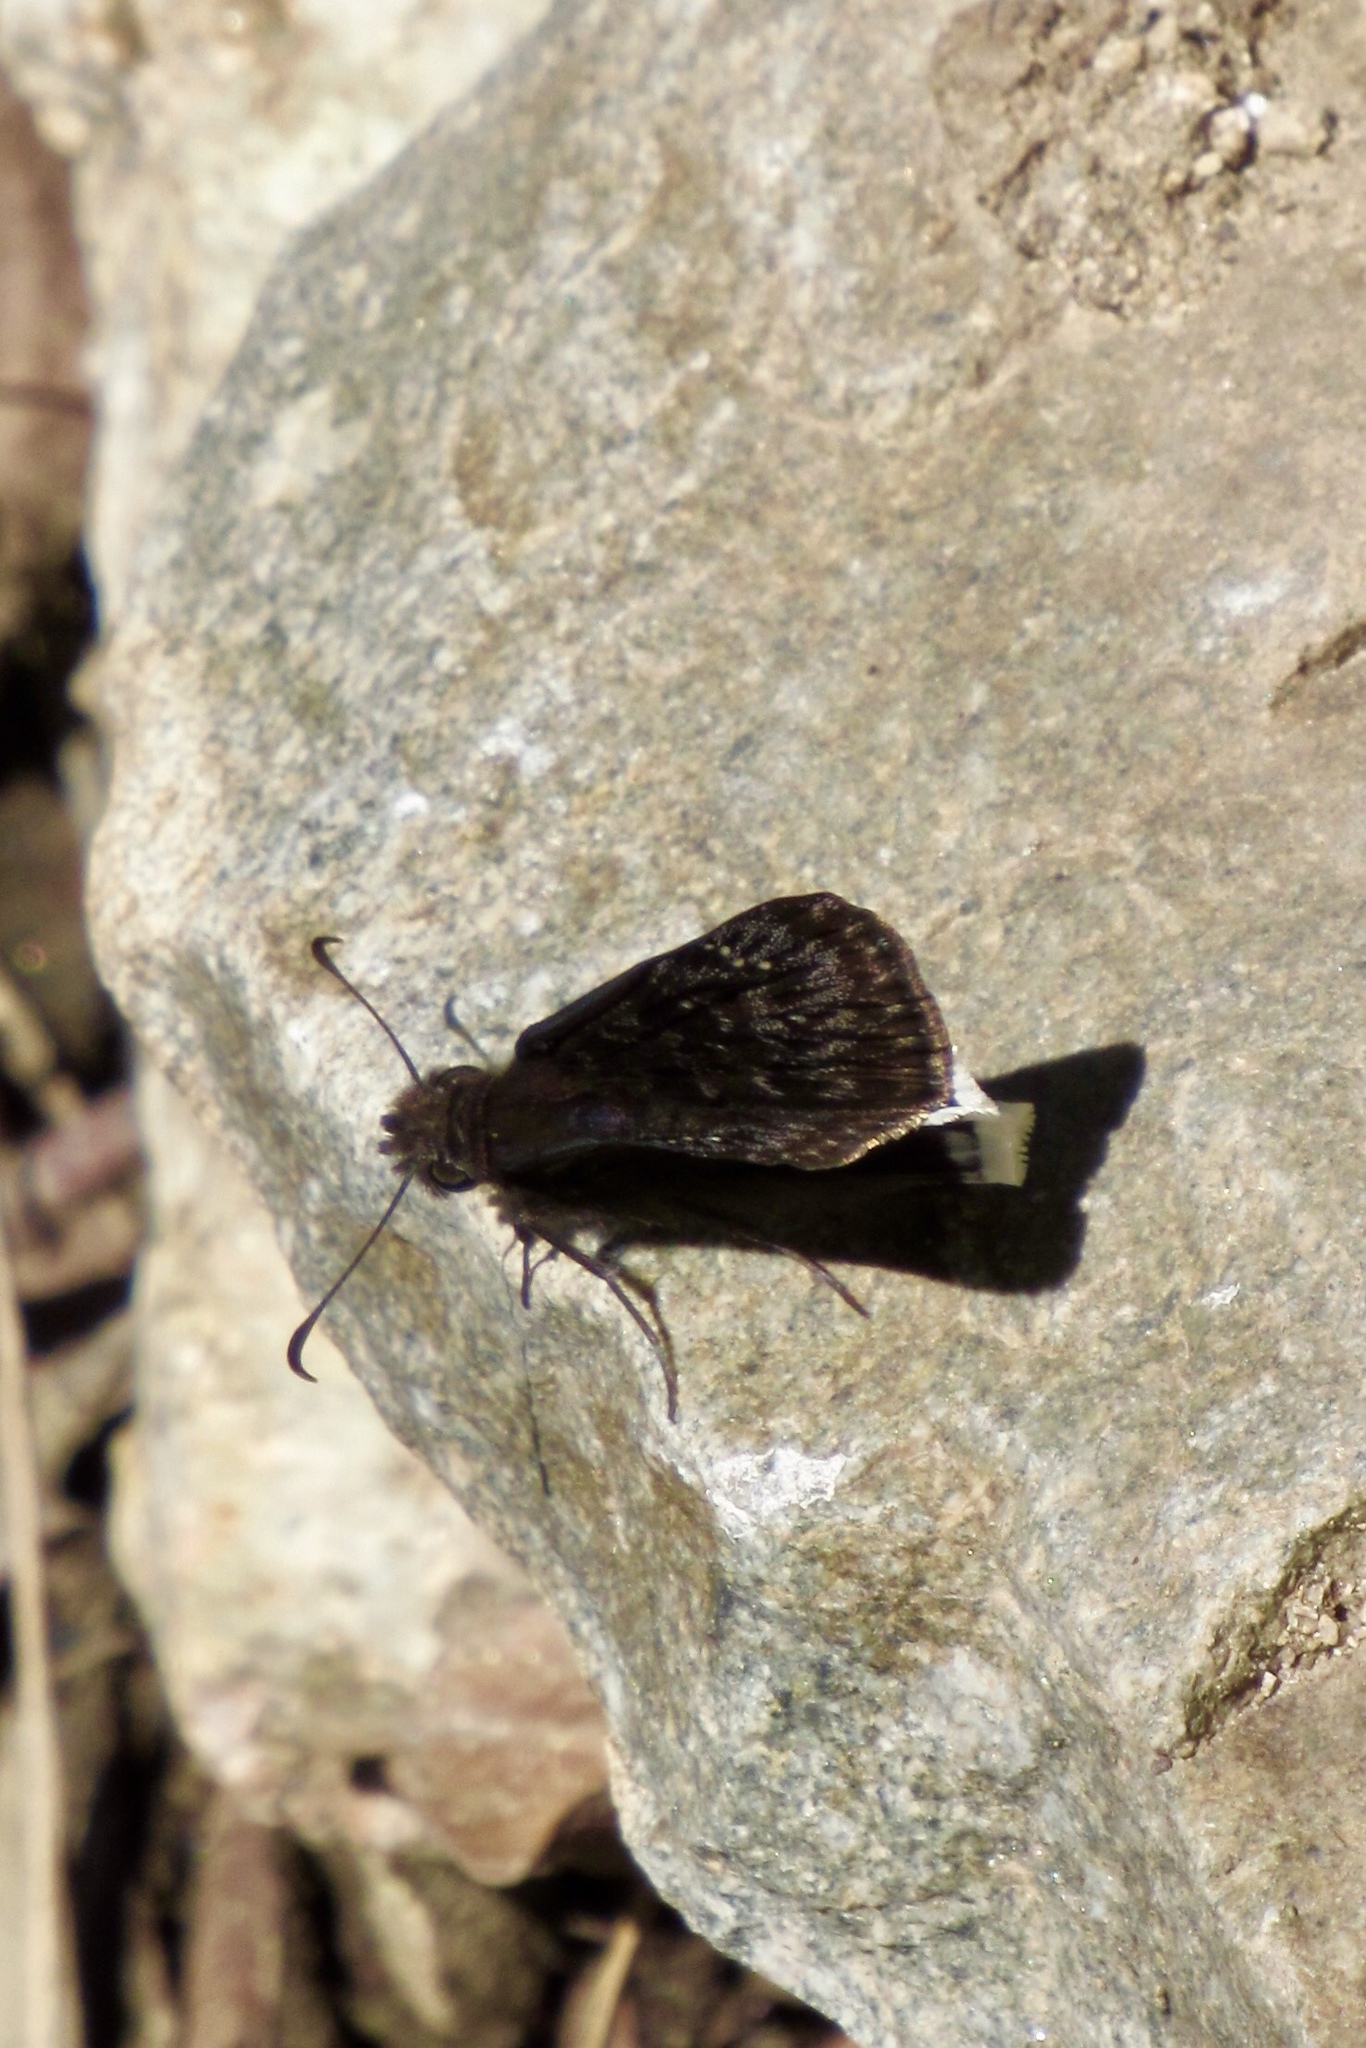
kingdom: Animalia
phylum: Arthropoda
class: Insecta
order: Lepidoptera
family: Hesperiidae
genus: Erynnis
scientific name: Erynnis tristis
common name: Mournful duskywing
